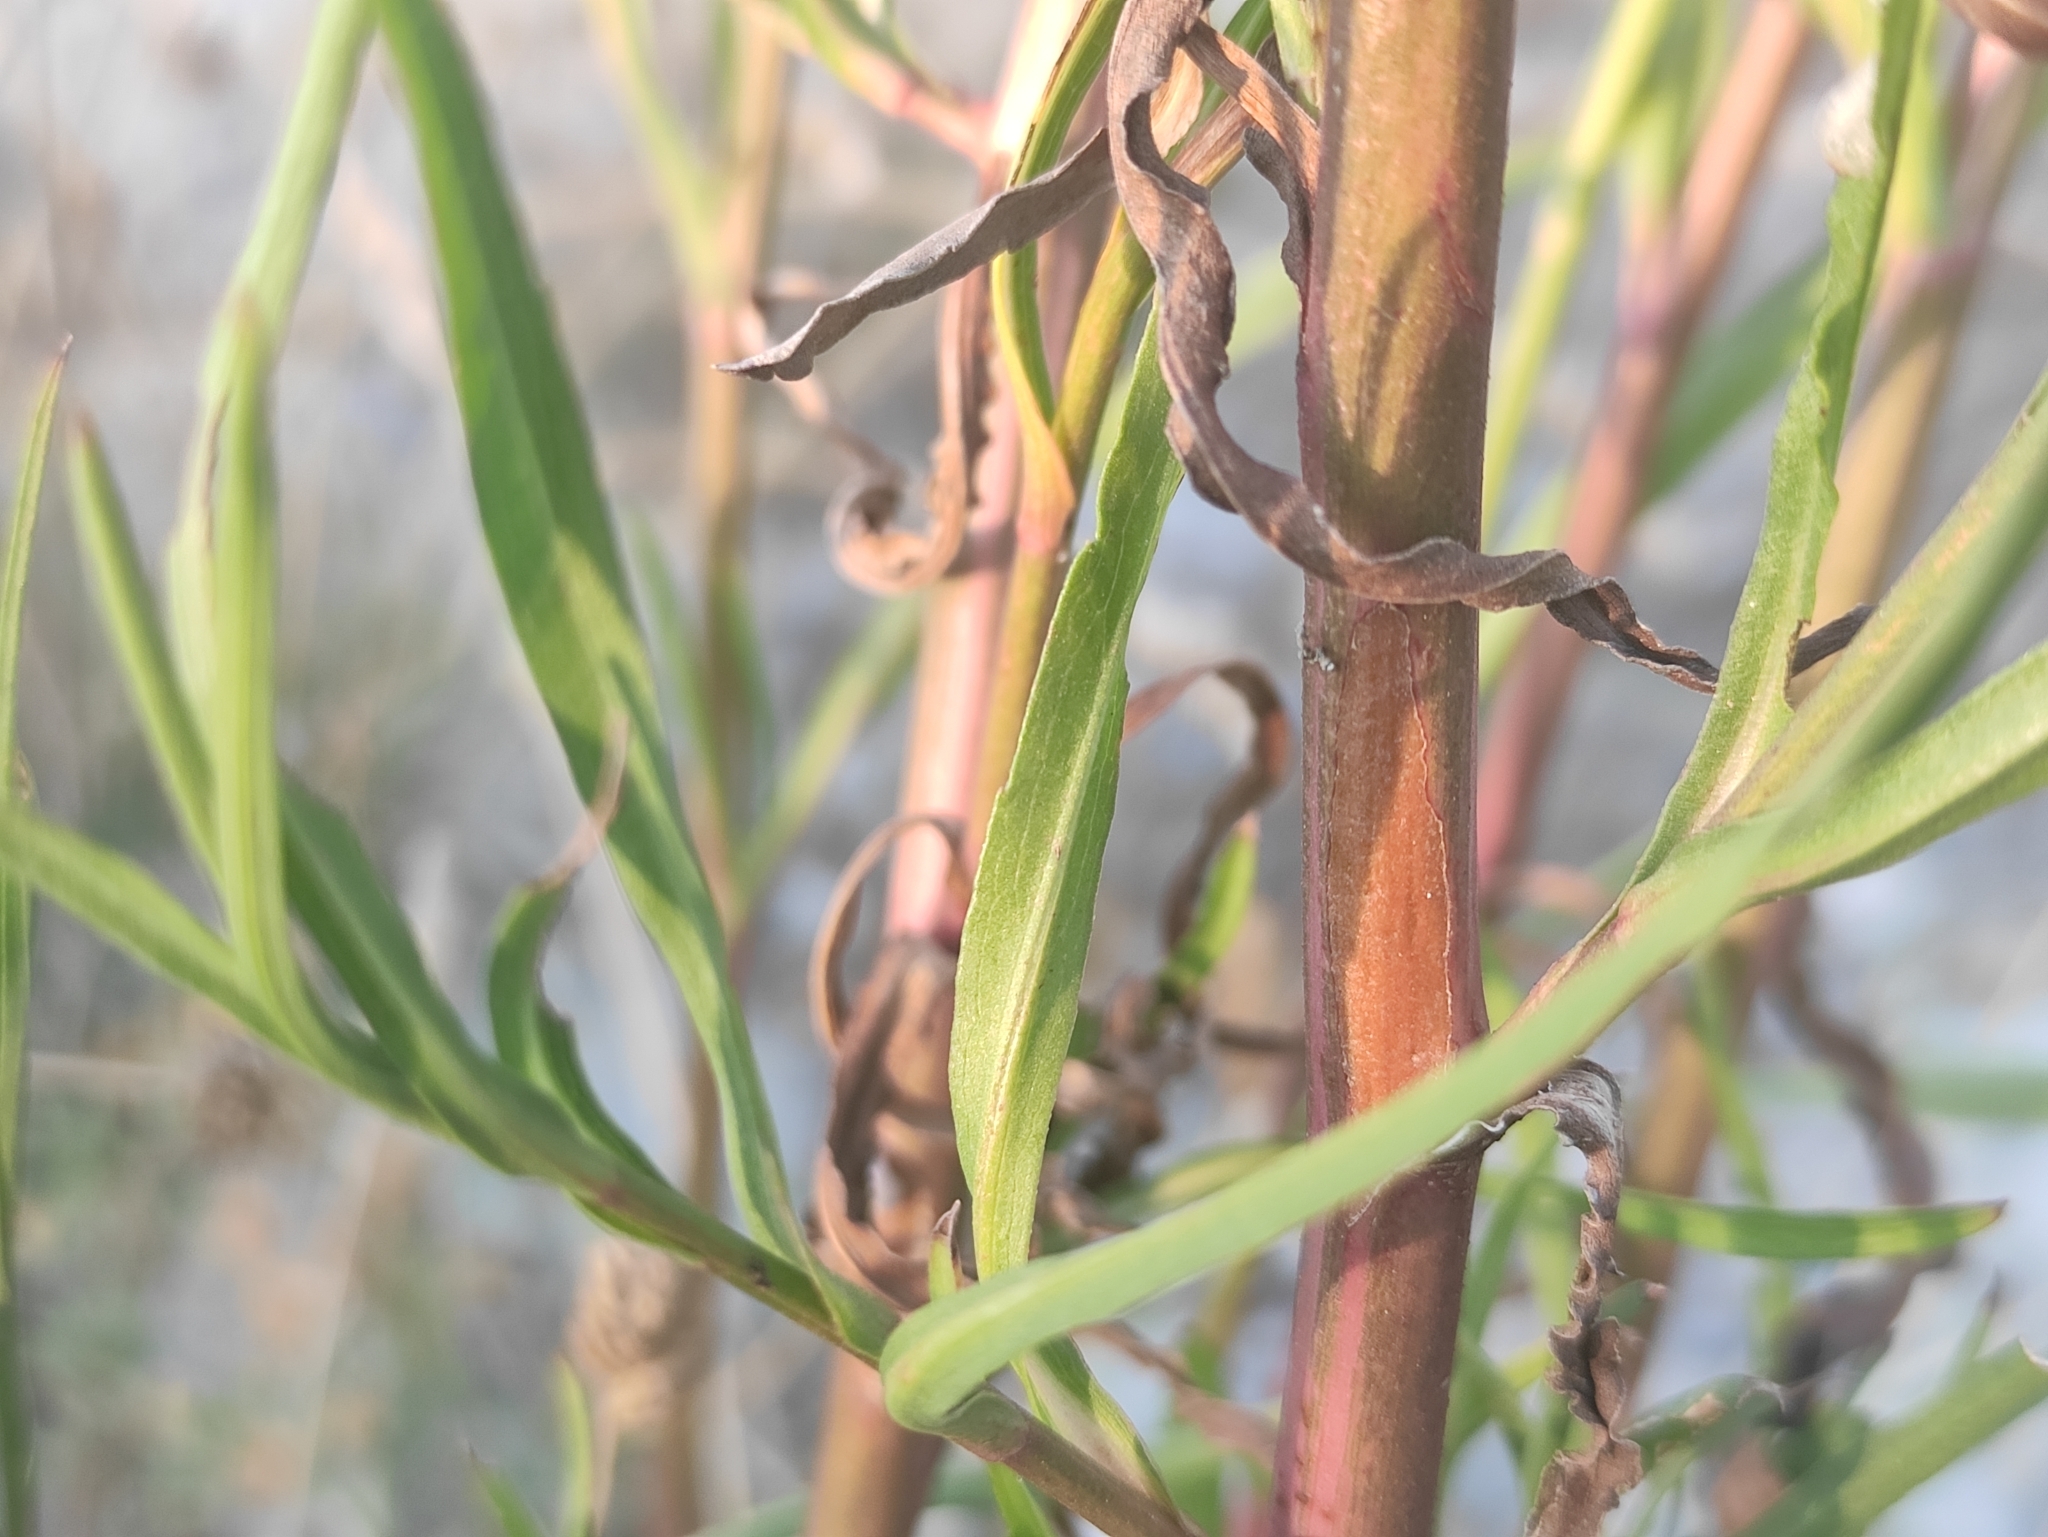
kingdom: Plantae
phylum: Tracheophyta
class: Magnoliopsida
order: Asterales
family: Asteraceae
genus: Symphyotrichum
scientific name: Symphyotrichum subulatum
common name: Annual saltmarsh aster
